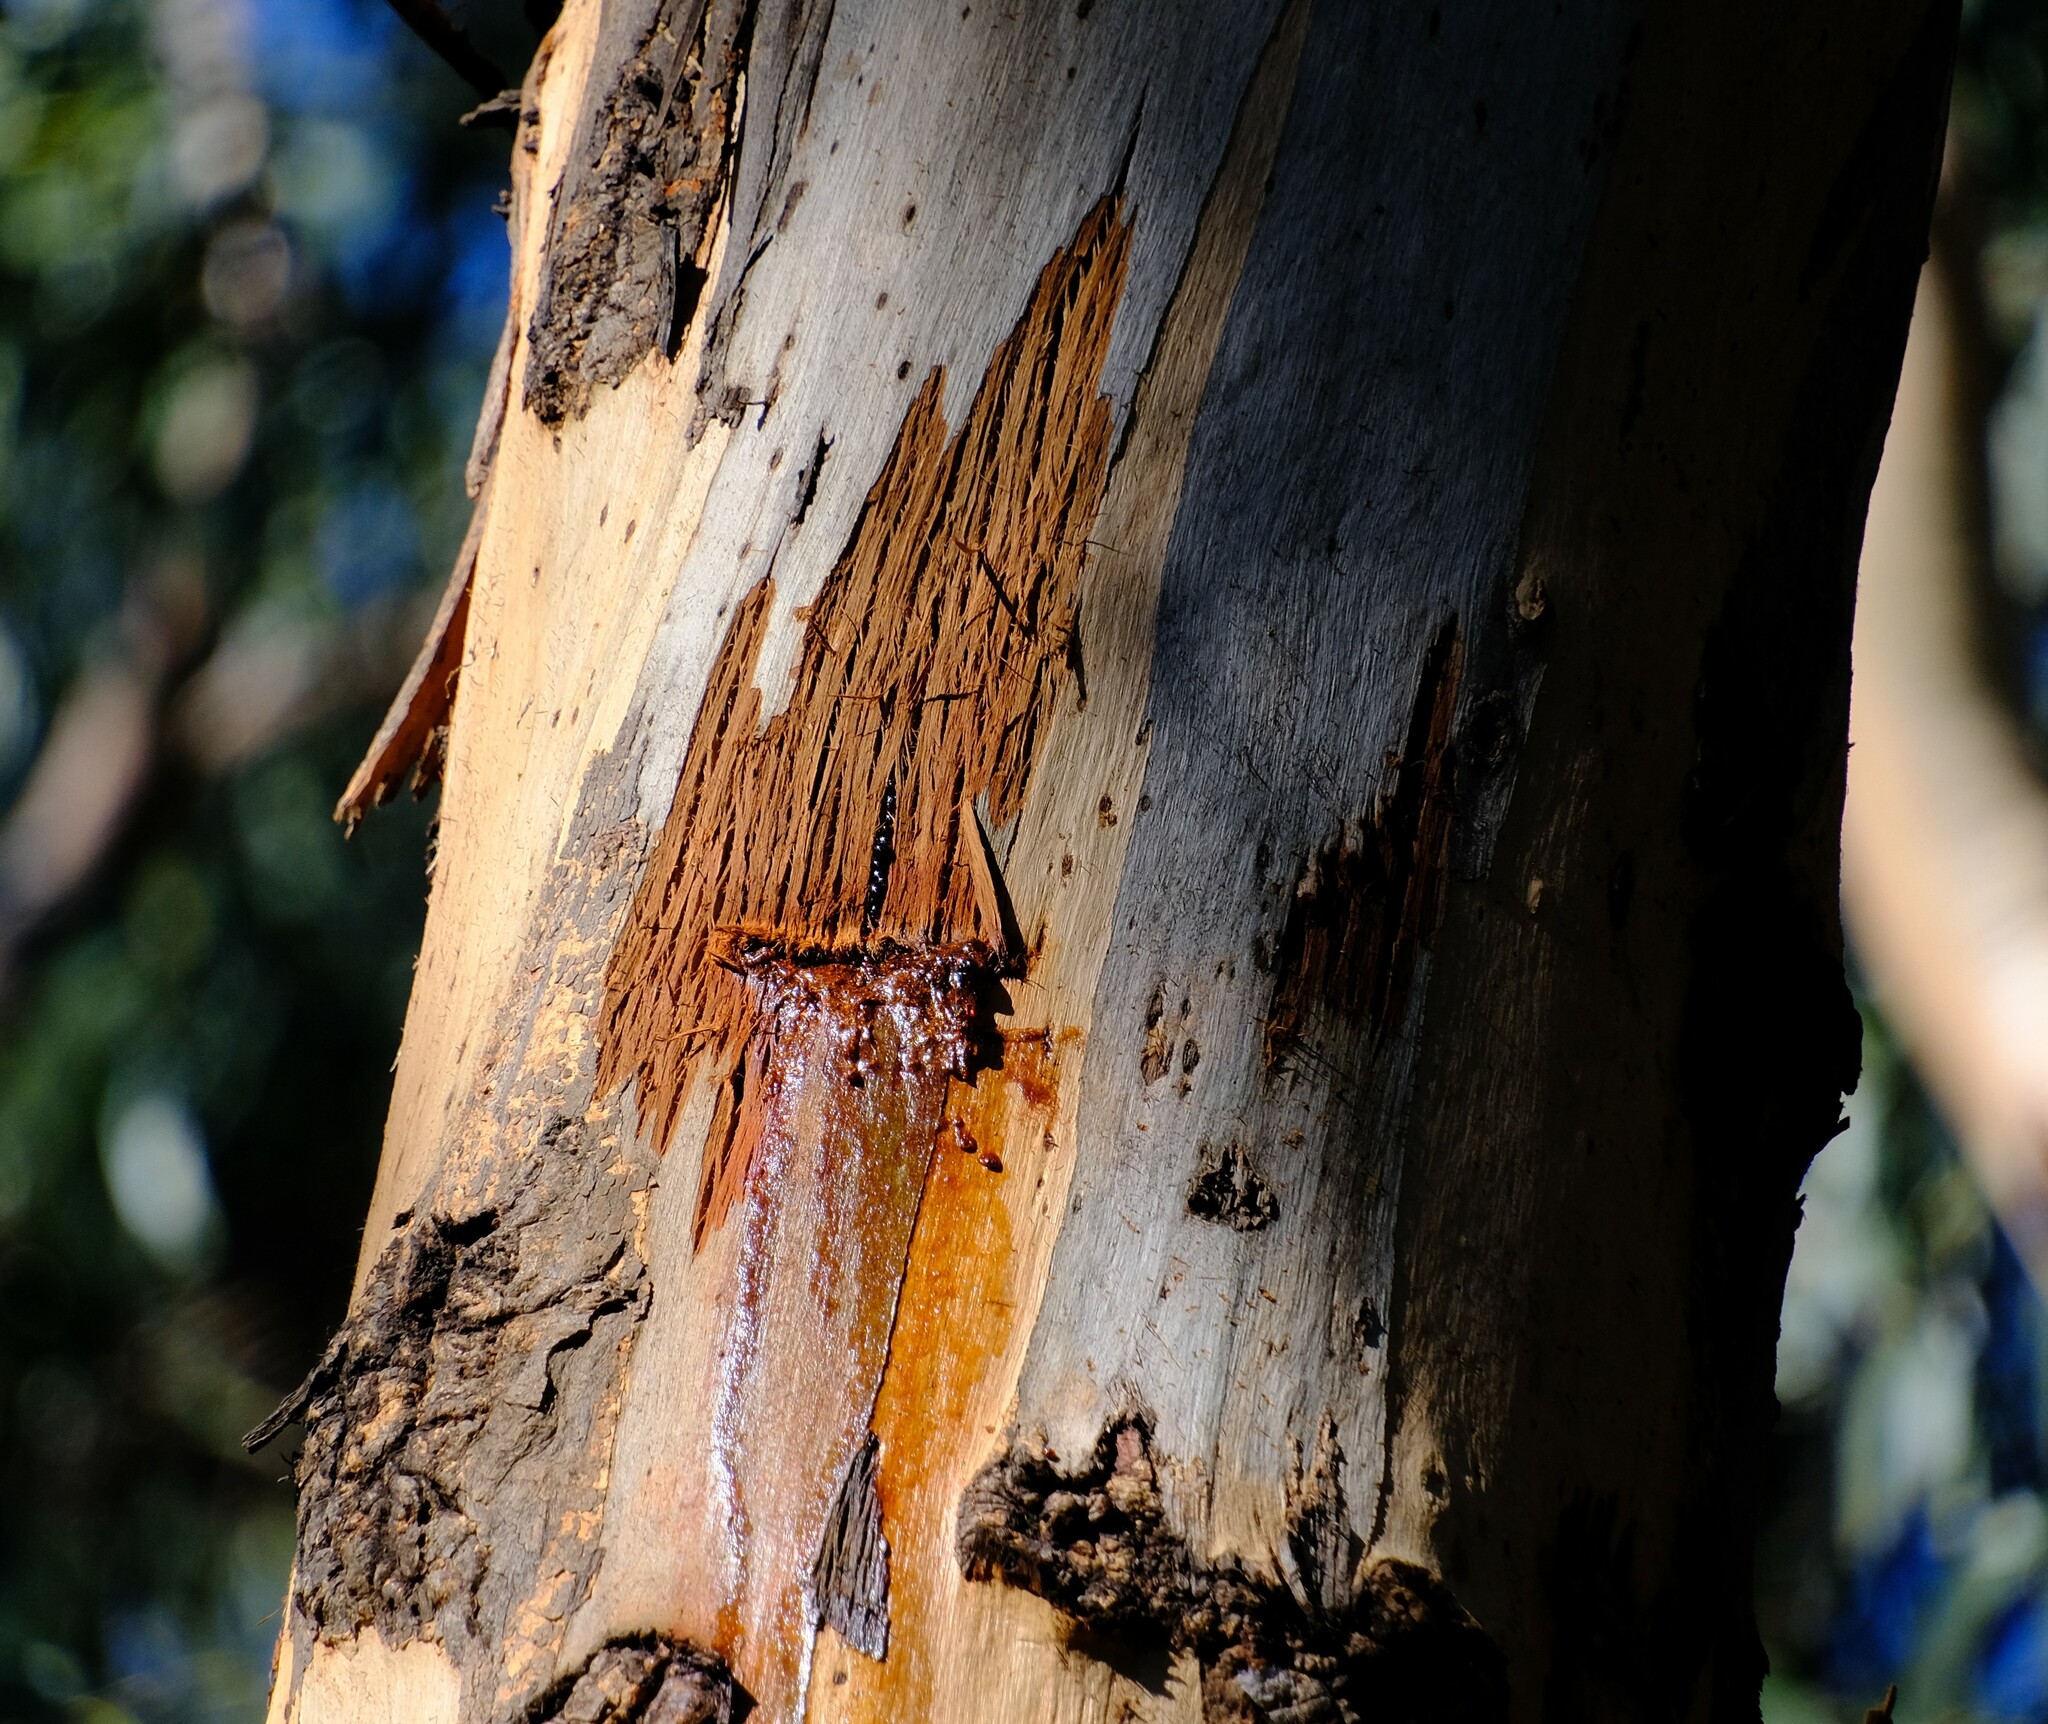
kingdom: Animalia
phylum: Chordata
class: Mammalia
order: Diprotodontia
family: Petauridae
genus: Petaurus
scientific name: Petaurus australis
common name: Yellow-bellied glider
